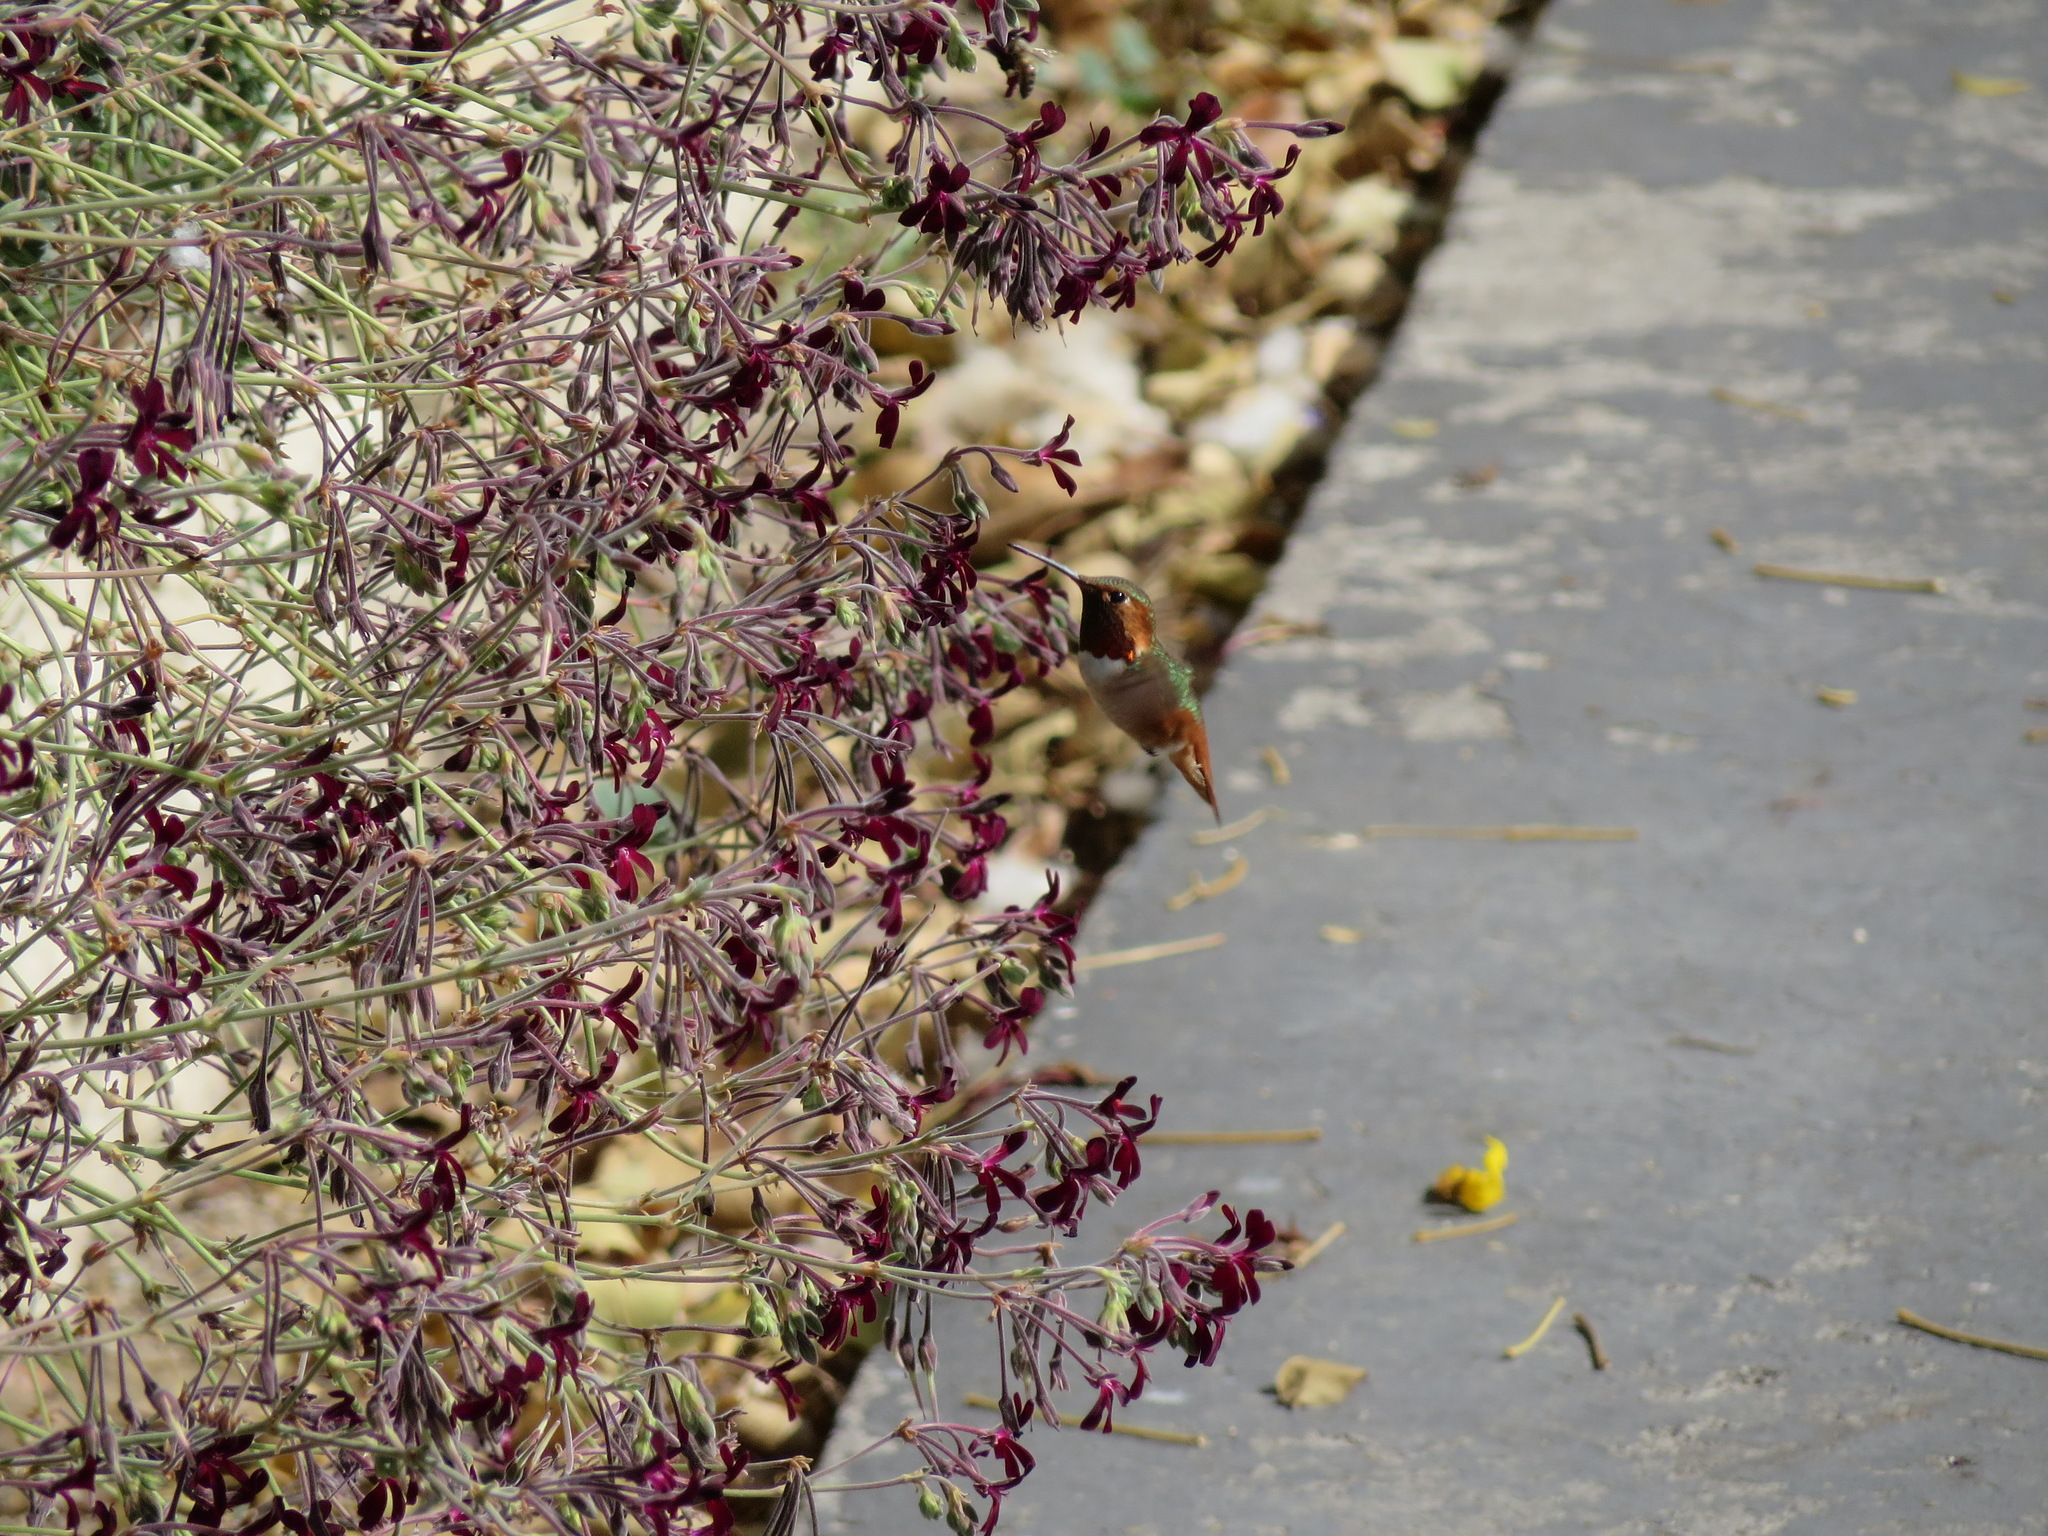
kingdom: Animalia
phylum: Chordata
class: Aves
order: Apodiformes
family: Trochilidae
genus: Selasphorus
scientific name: Selasphorus sasin
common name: Allen's hummingbird
